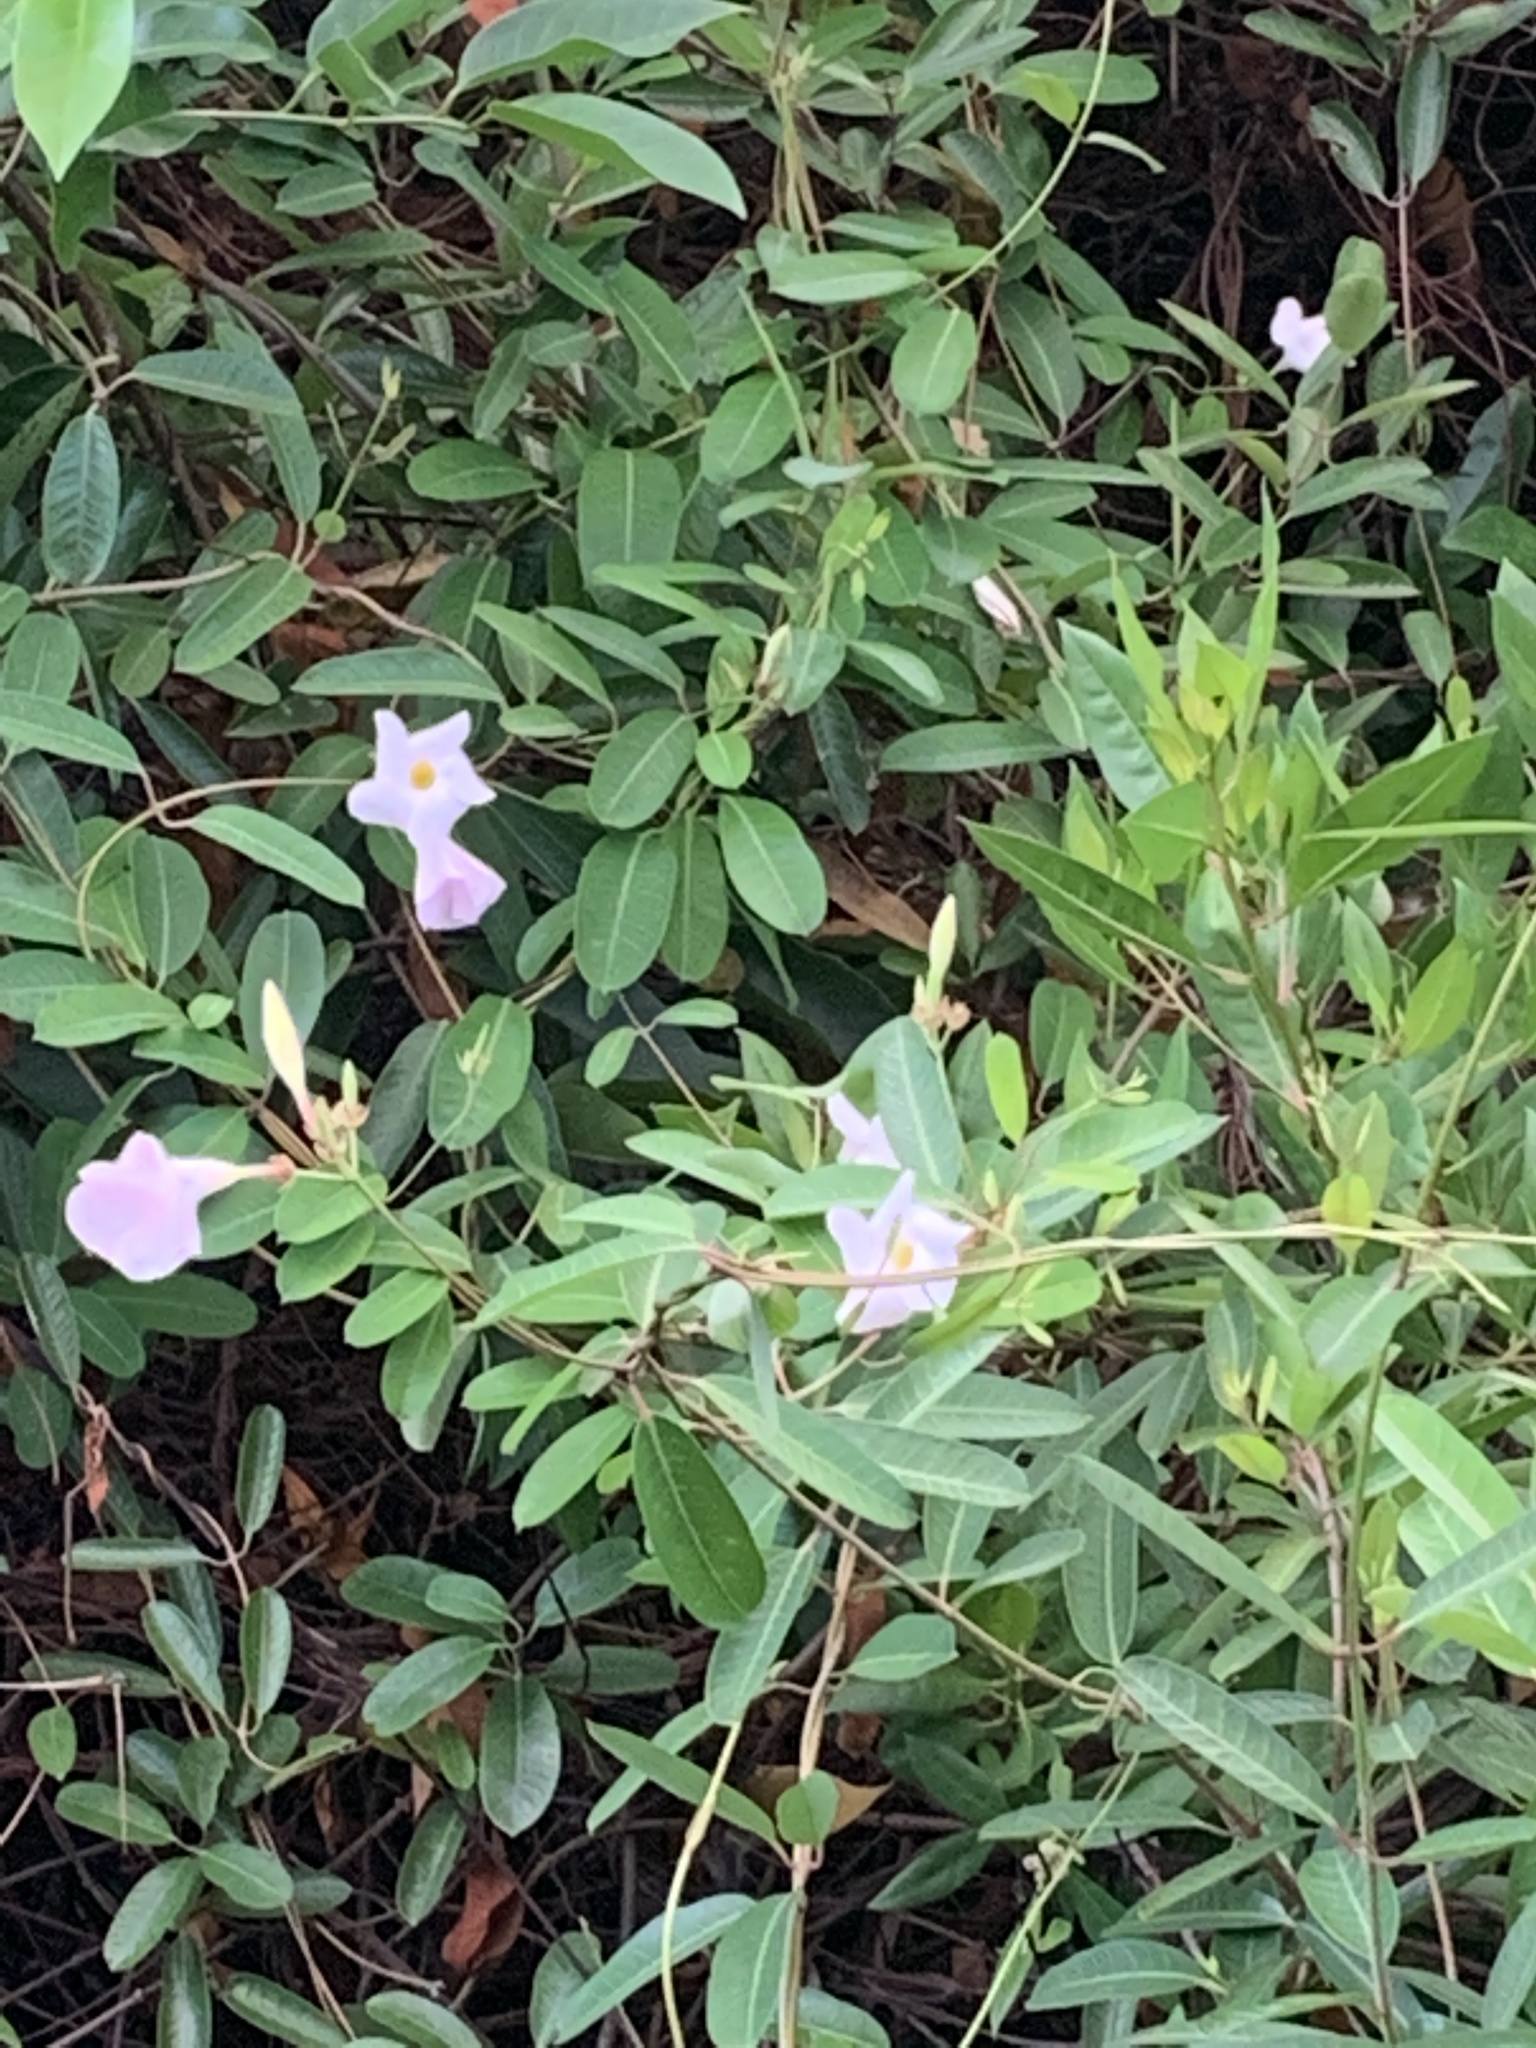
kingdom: Plantae
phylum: Tracheophyta
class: Magnoliopsida
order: Gentianales
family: Apocynaceae
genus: Rhabdadenia
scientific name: Rhabdadenia biflora
